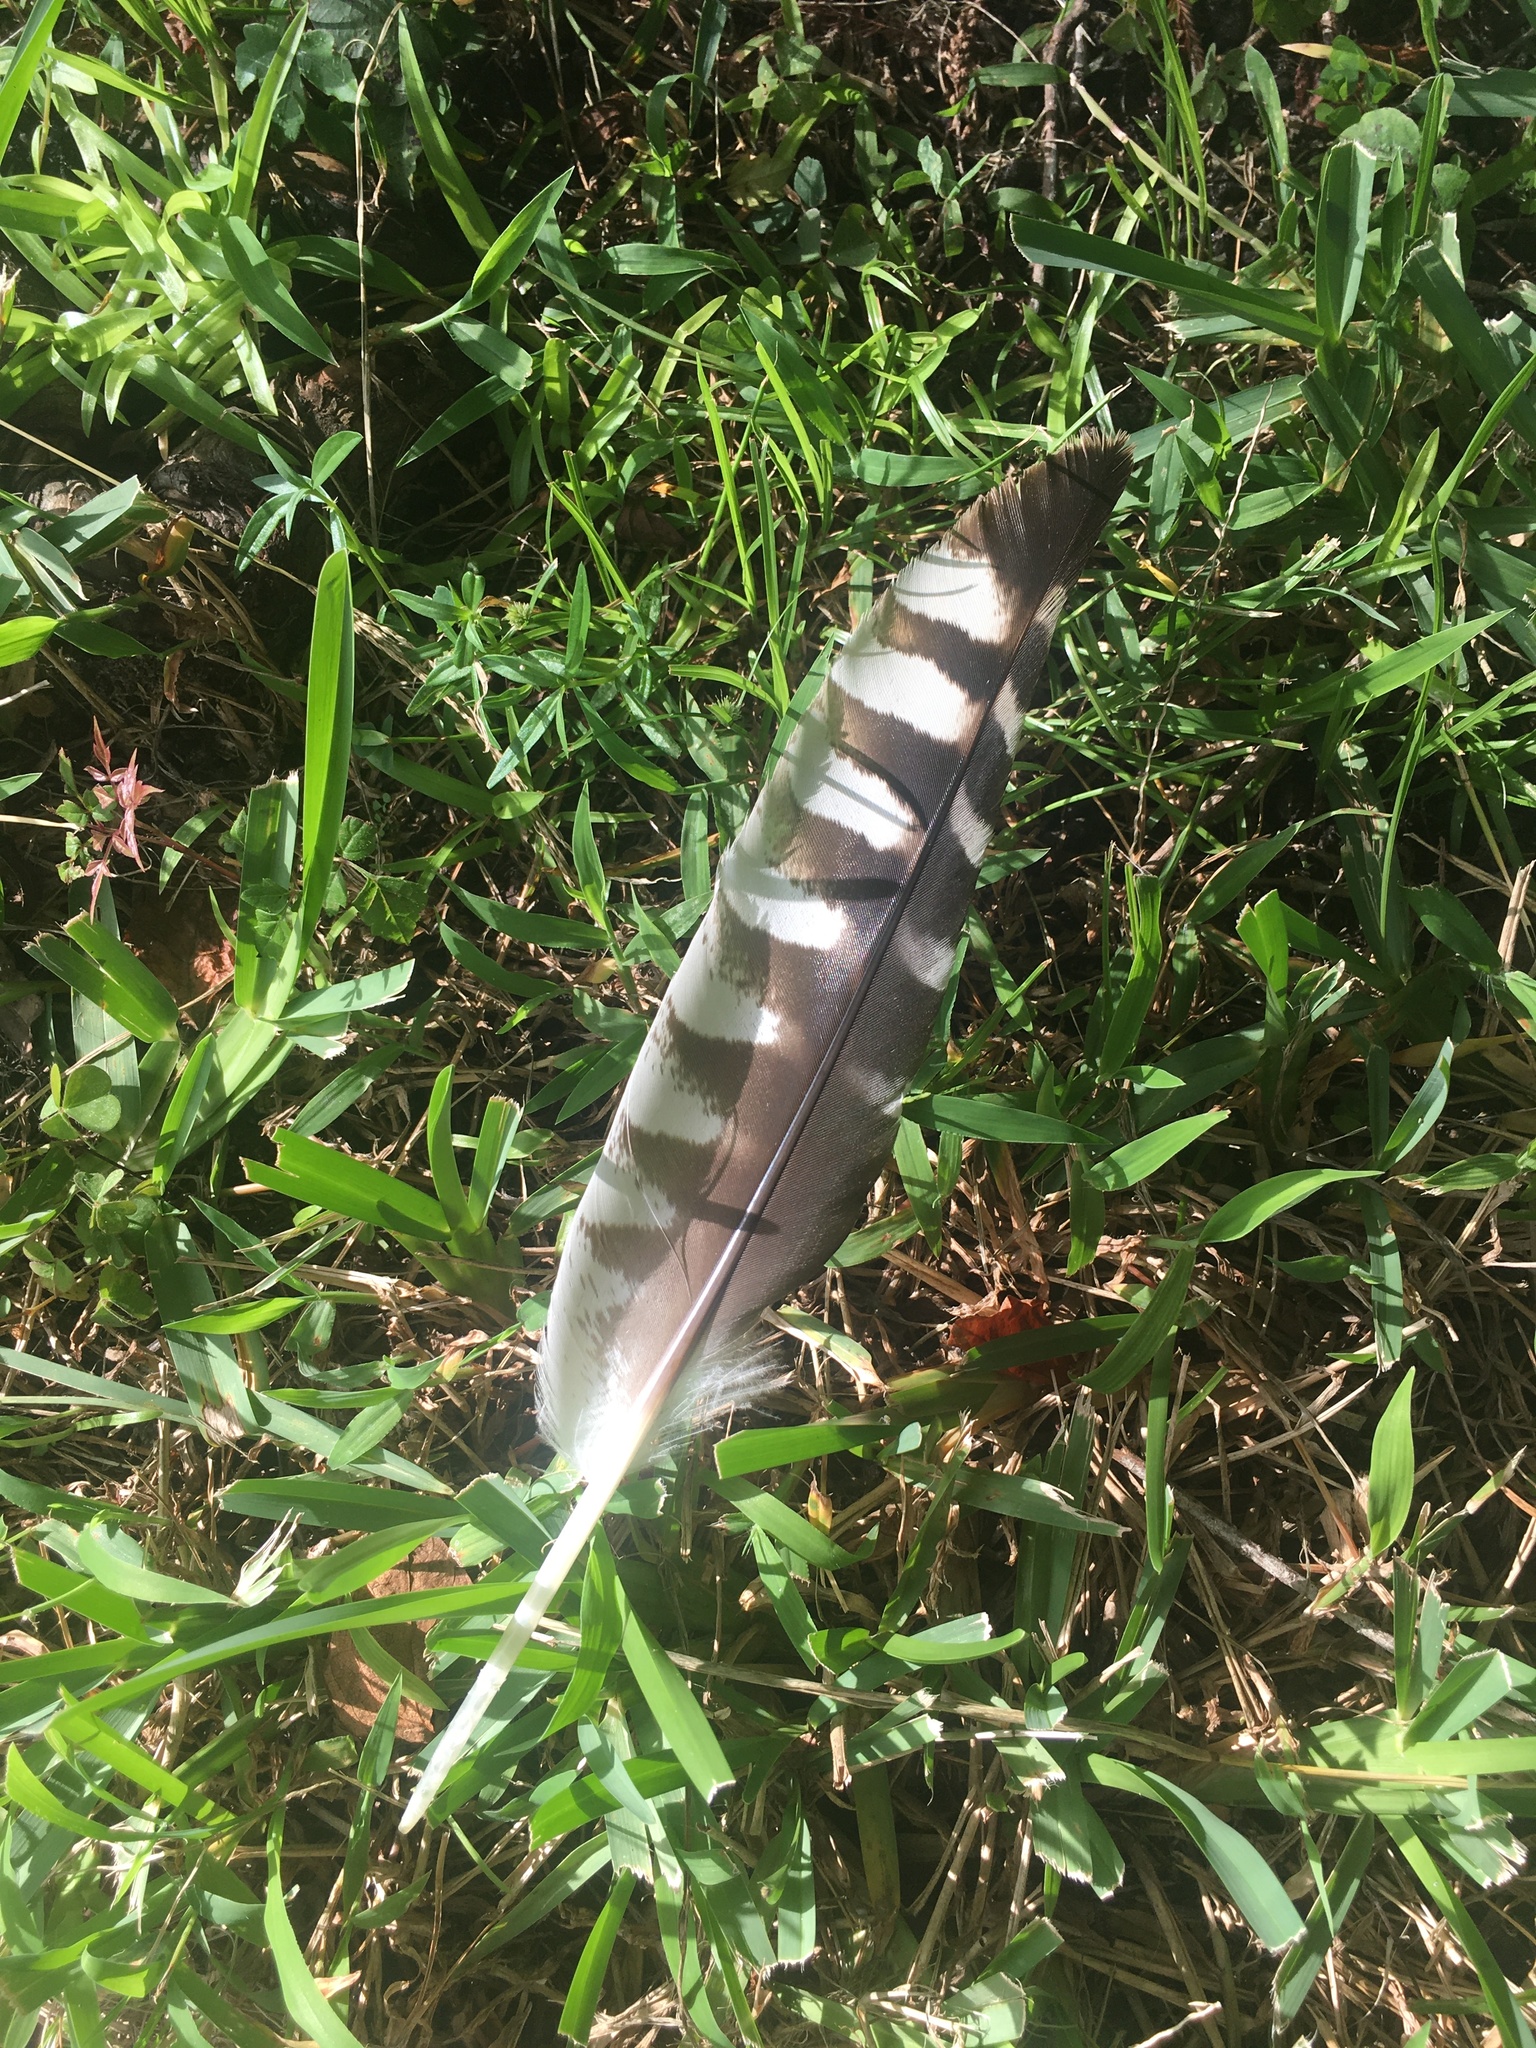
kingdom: Animalia
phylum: Chordata
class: Aves
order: Accipitriformes
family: Accipitridae
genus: Buteo
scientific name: Buteo lineatus
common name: Red-shouldered hawk
